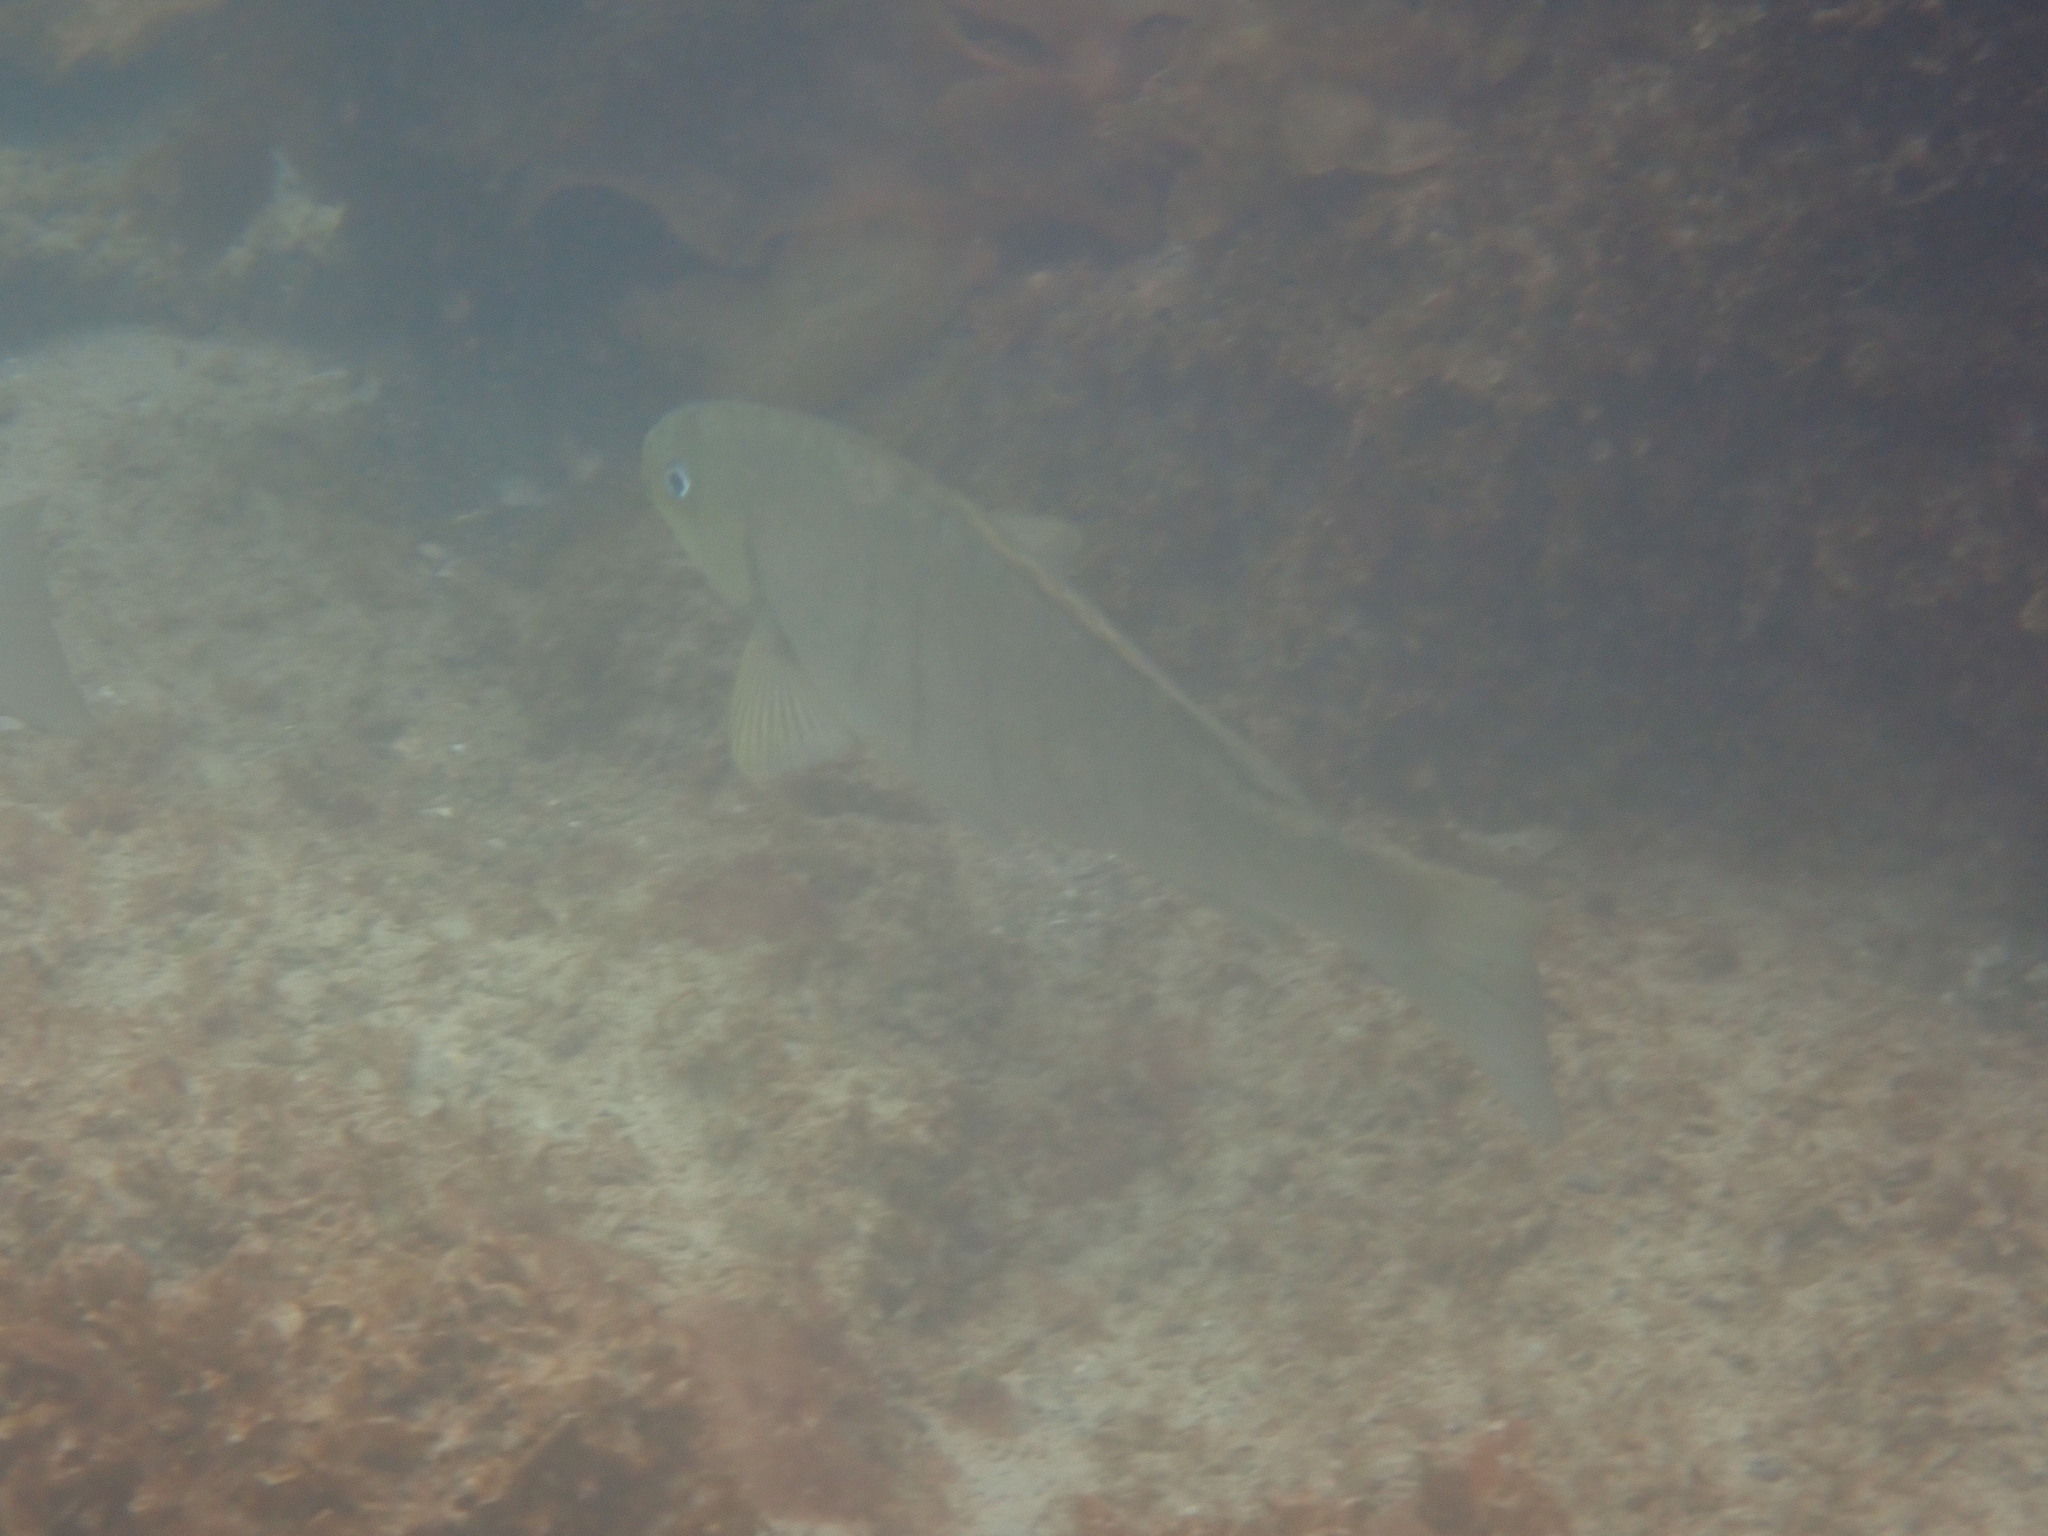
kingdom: Animalia
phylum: Chordata
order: Perciformes
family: Kyphosidae
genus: Girella
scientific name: Girella tricuspidata
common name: Parore
